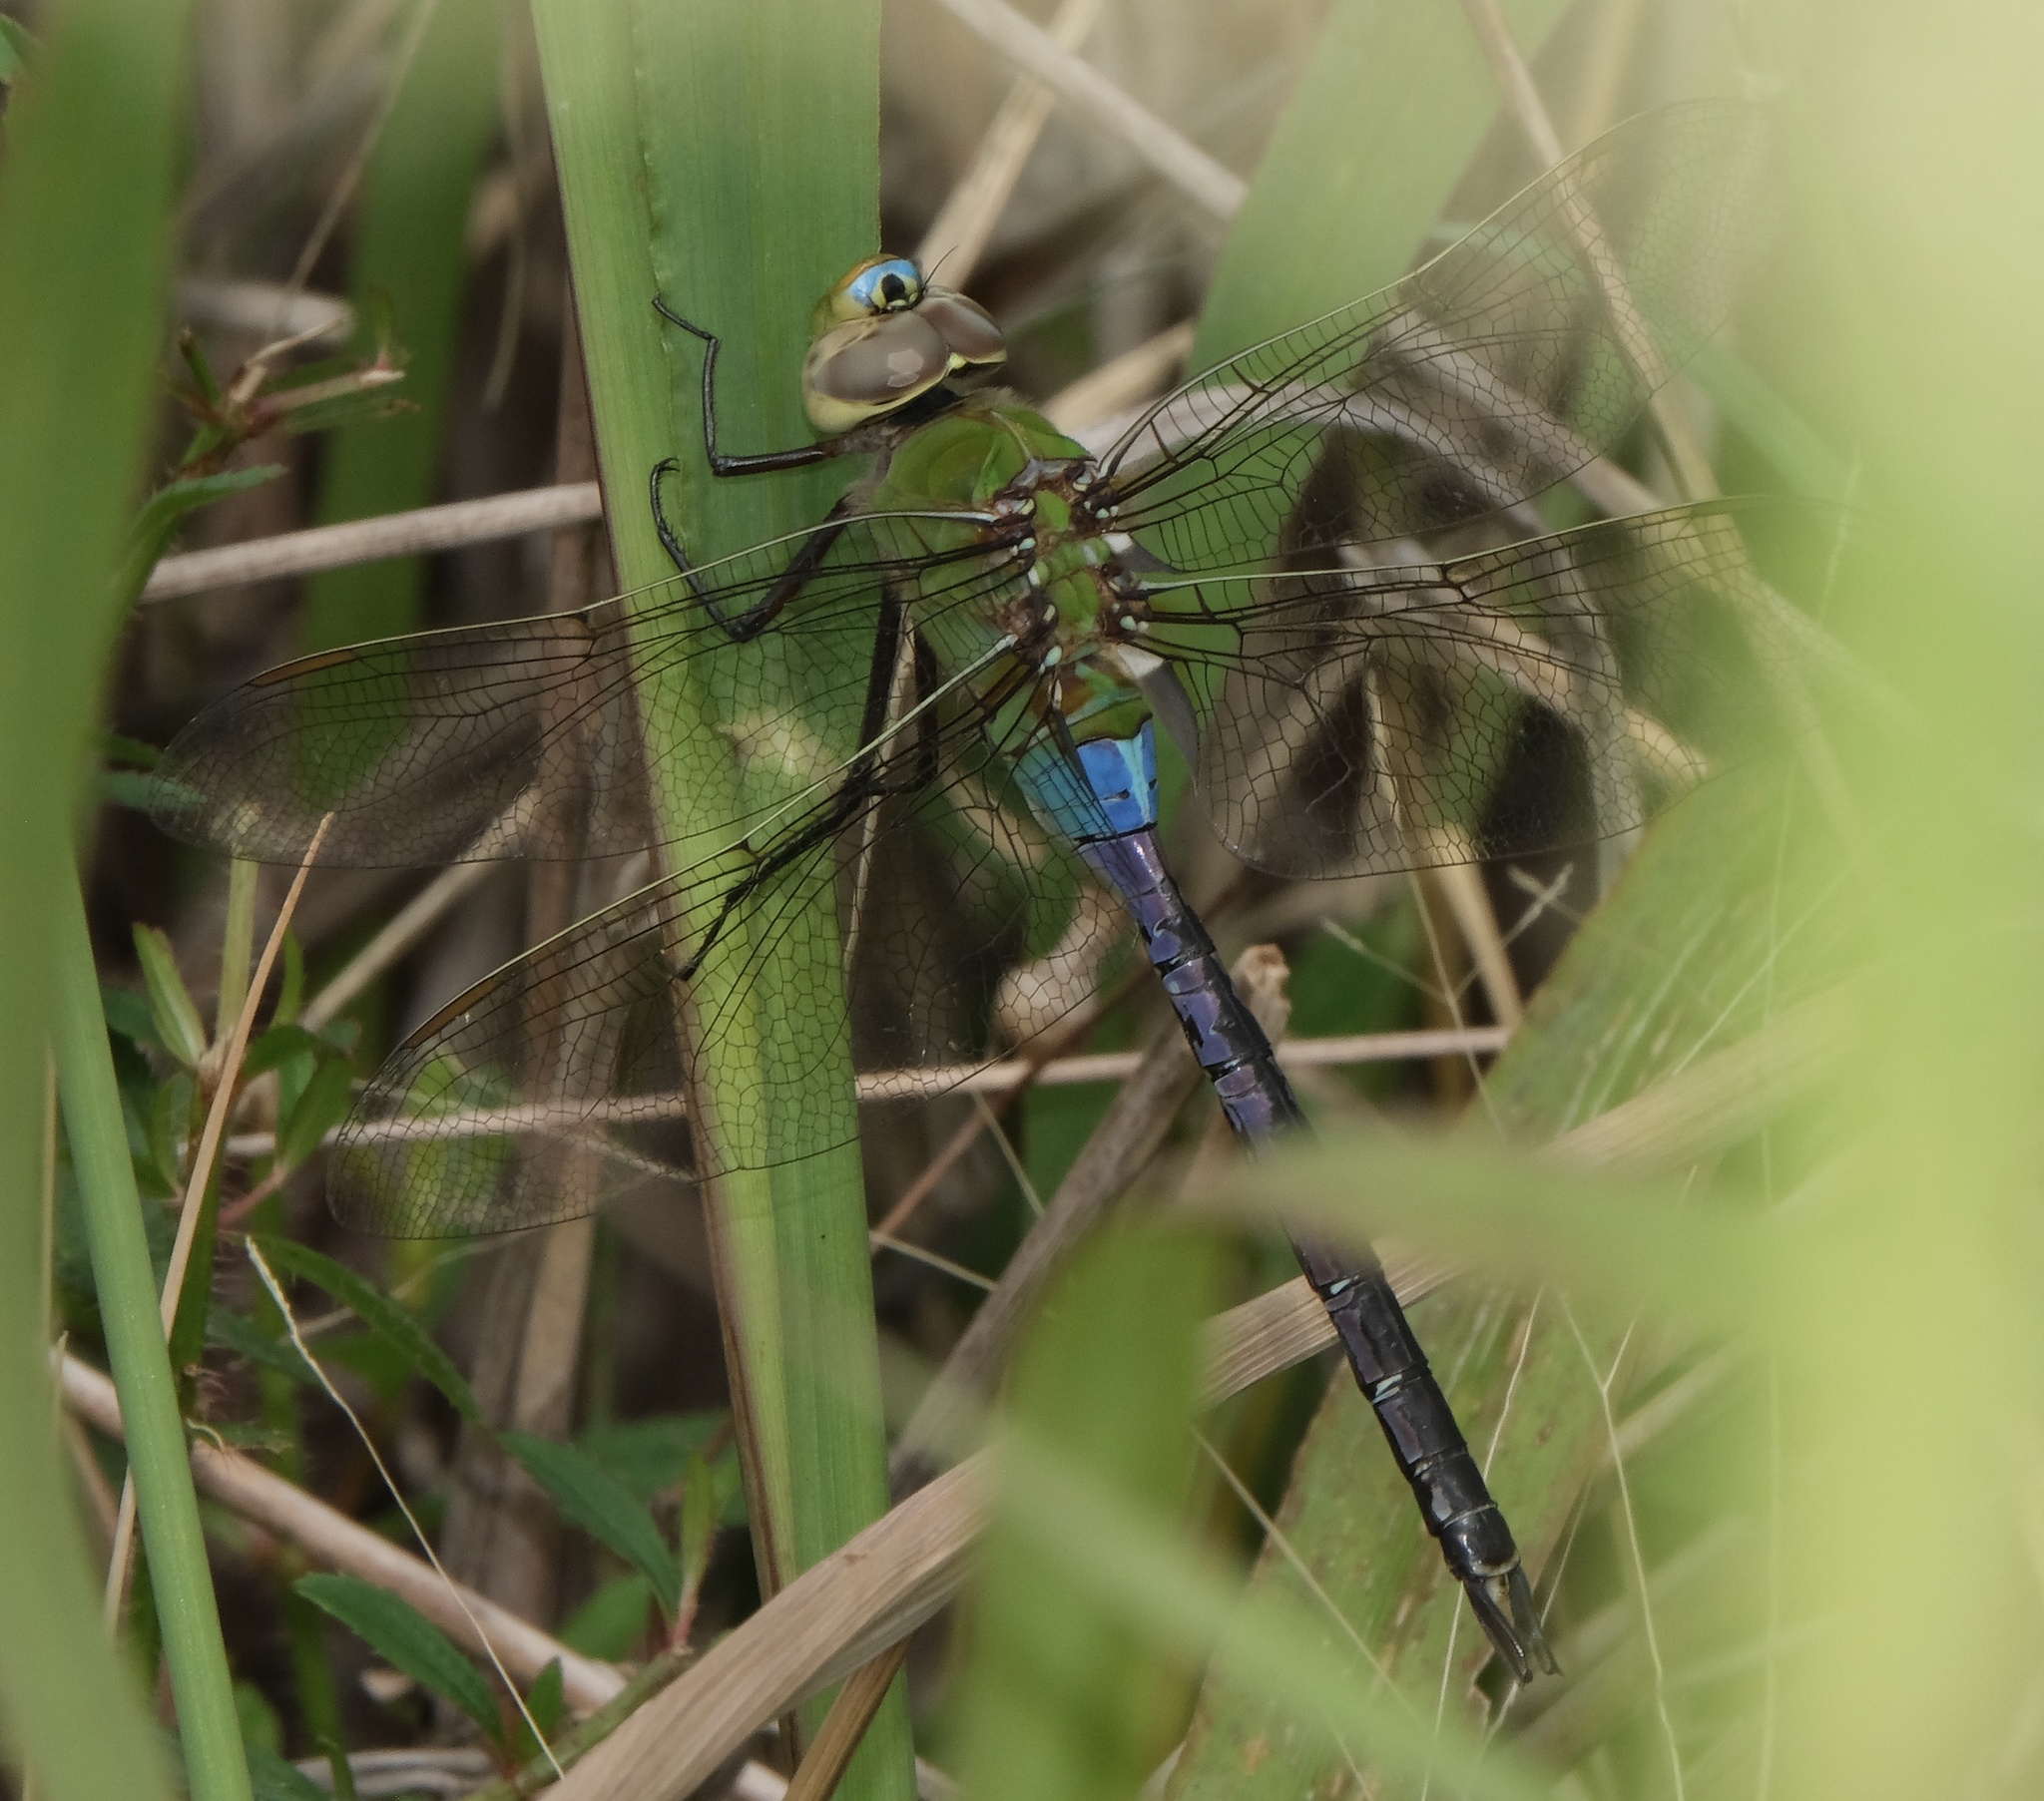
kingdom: Animalia
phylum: Arthropoda
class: Insecta
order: Odonata
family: Aeshnidae
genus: Anax
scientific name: Anax junius
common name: Common green darner
